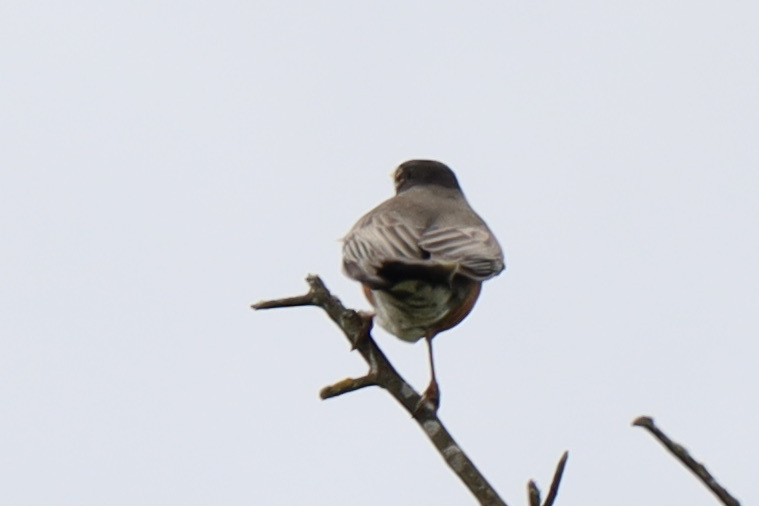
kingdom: Animalia
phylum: Chordata
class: Aves
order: Passeriformes
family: Turdidae
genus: Turdus
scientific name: Turdus migratorius
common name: American robin
